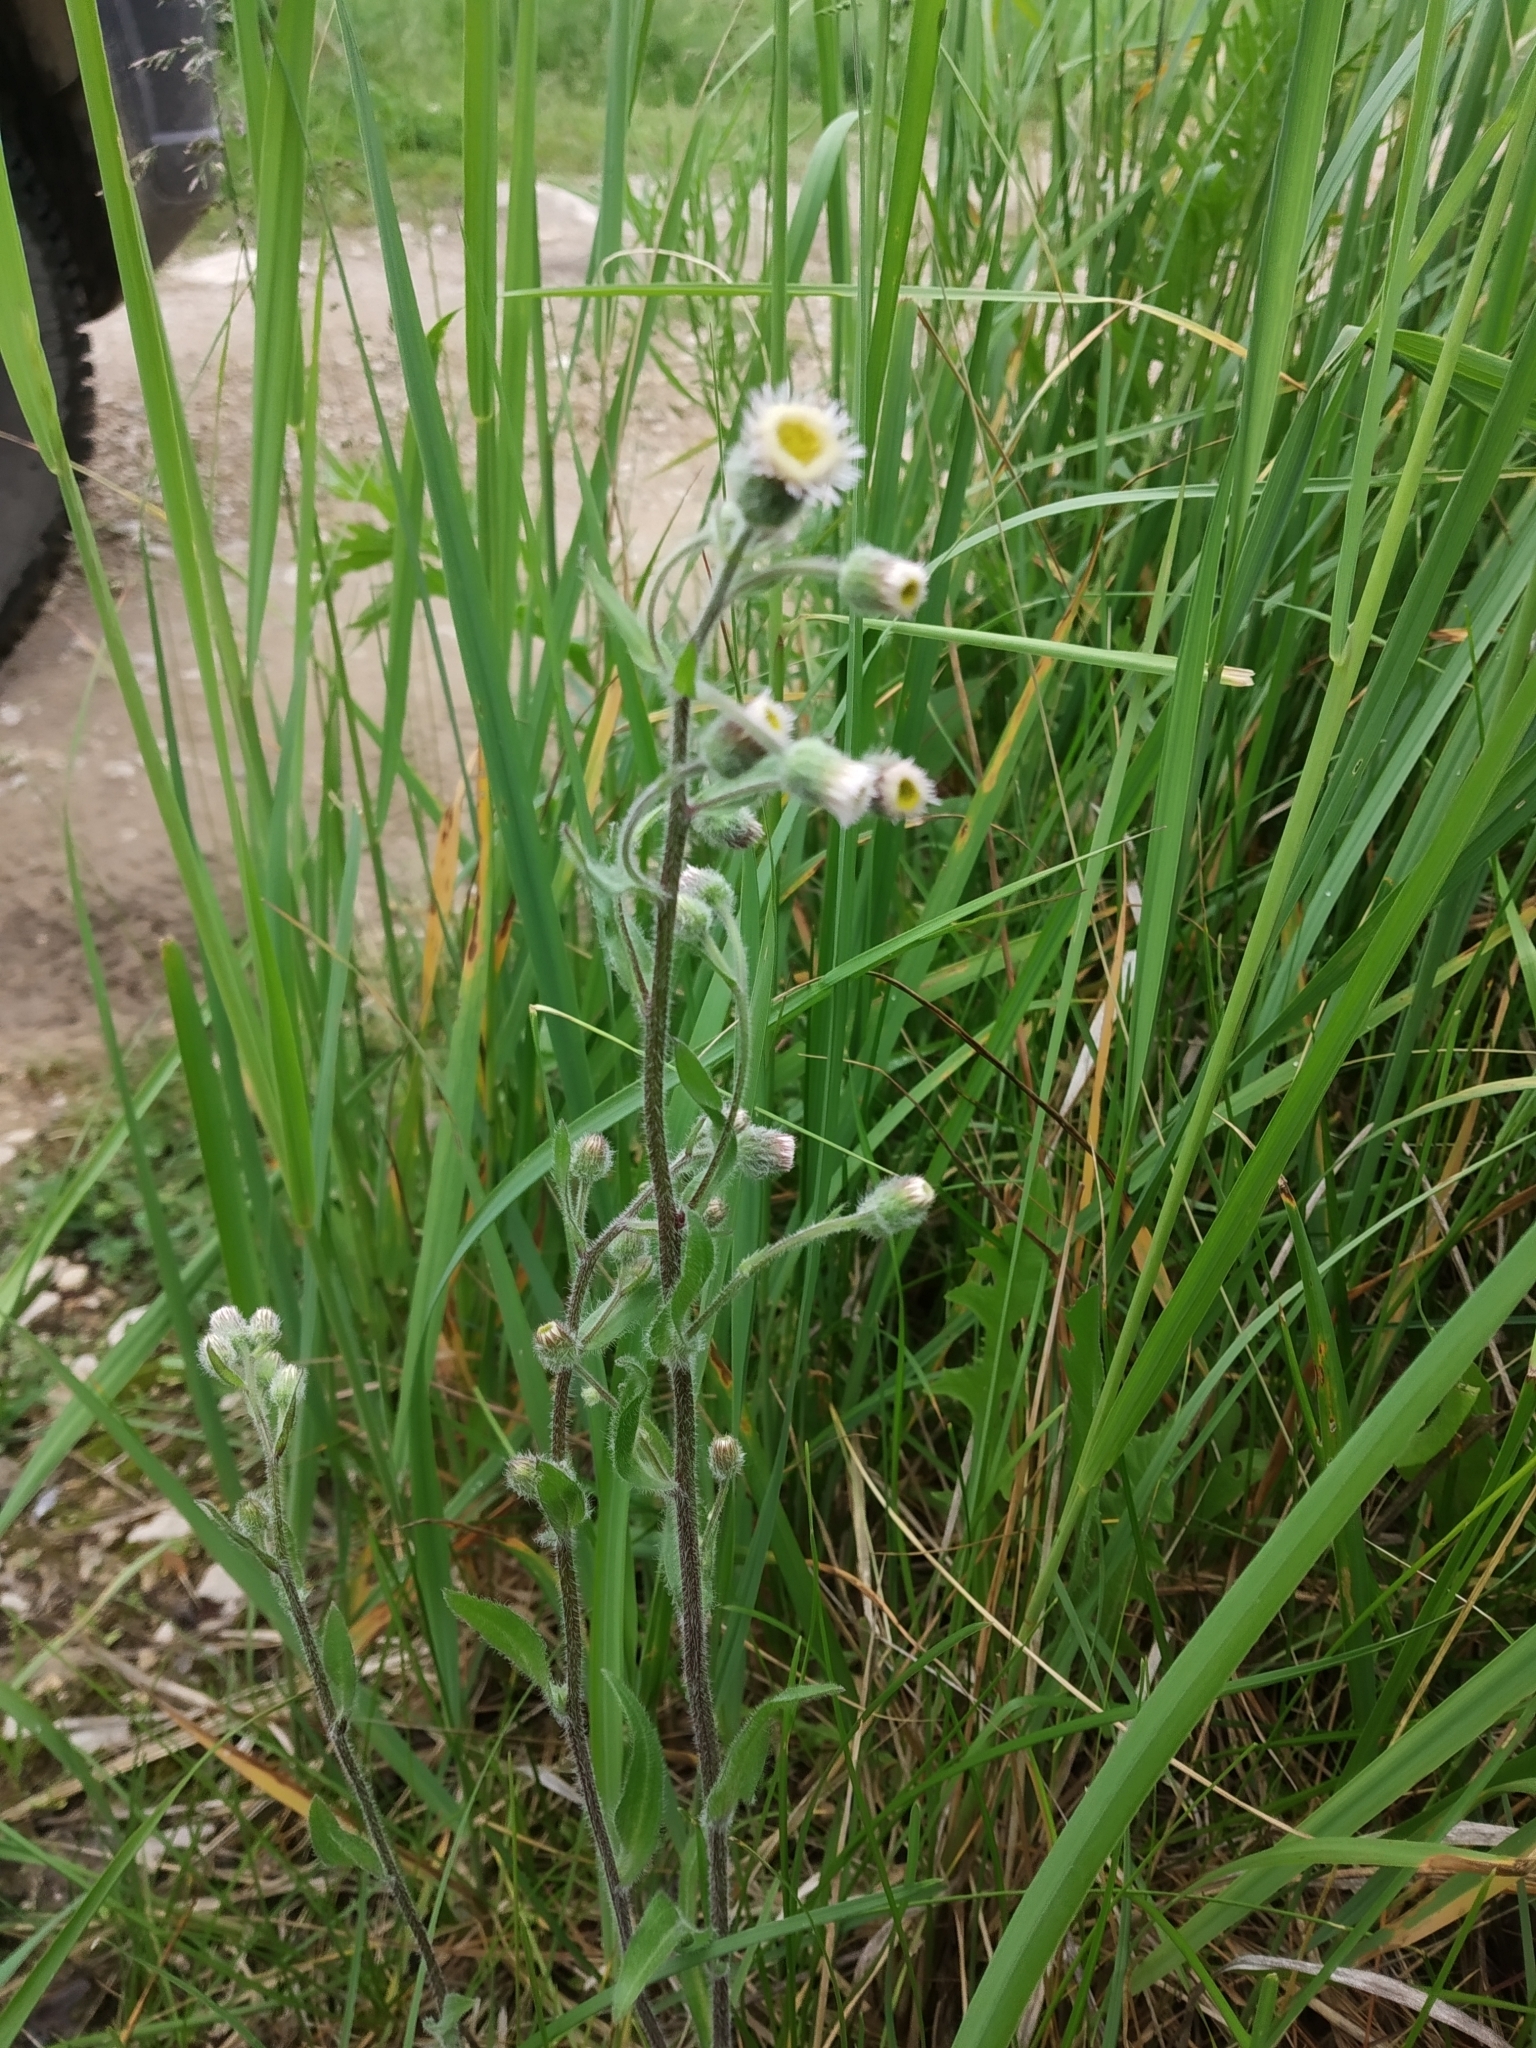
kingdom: Plantae
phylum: Tracheophyta
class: Magnoliopsida
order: Asterales
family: Asteraceae
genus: Erigeron
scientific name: Erigeron acris
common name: Blue fleabane
